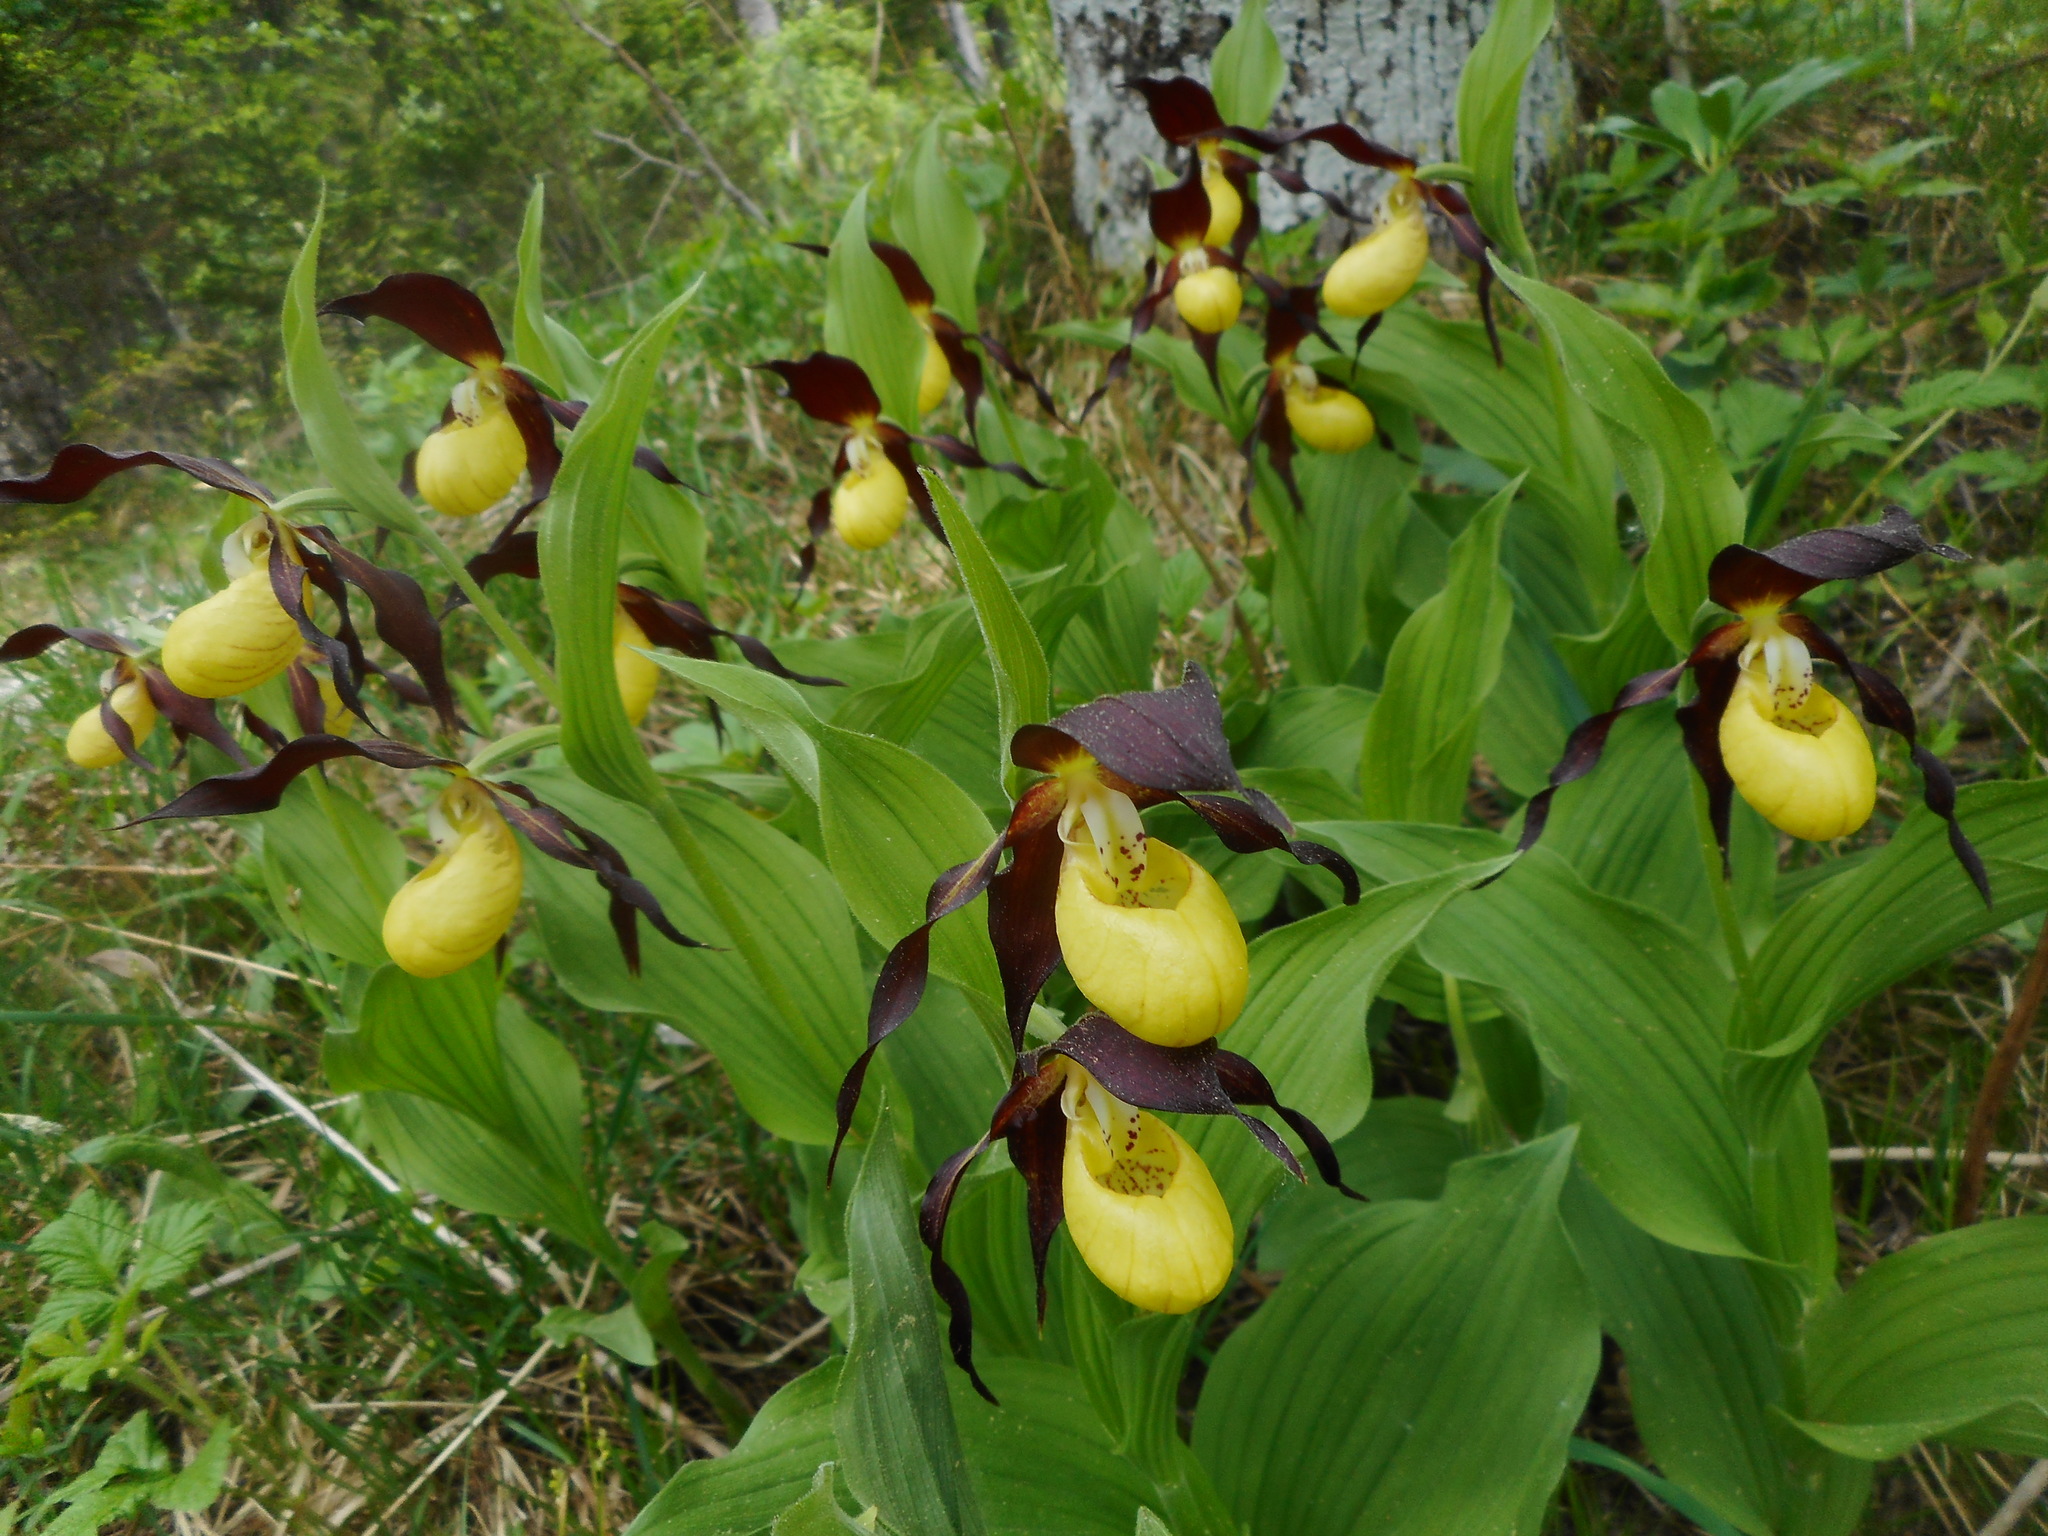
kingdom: Plantae
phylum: Tracheophyta
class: Liliopsida
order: Asparagales
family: Orchidaceae
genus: Cypripedium
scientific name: Cypripedium calceolus
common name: Lady's-slipper
